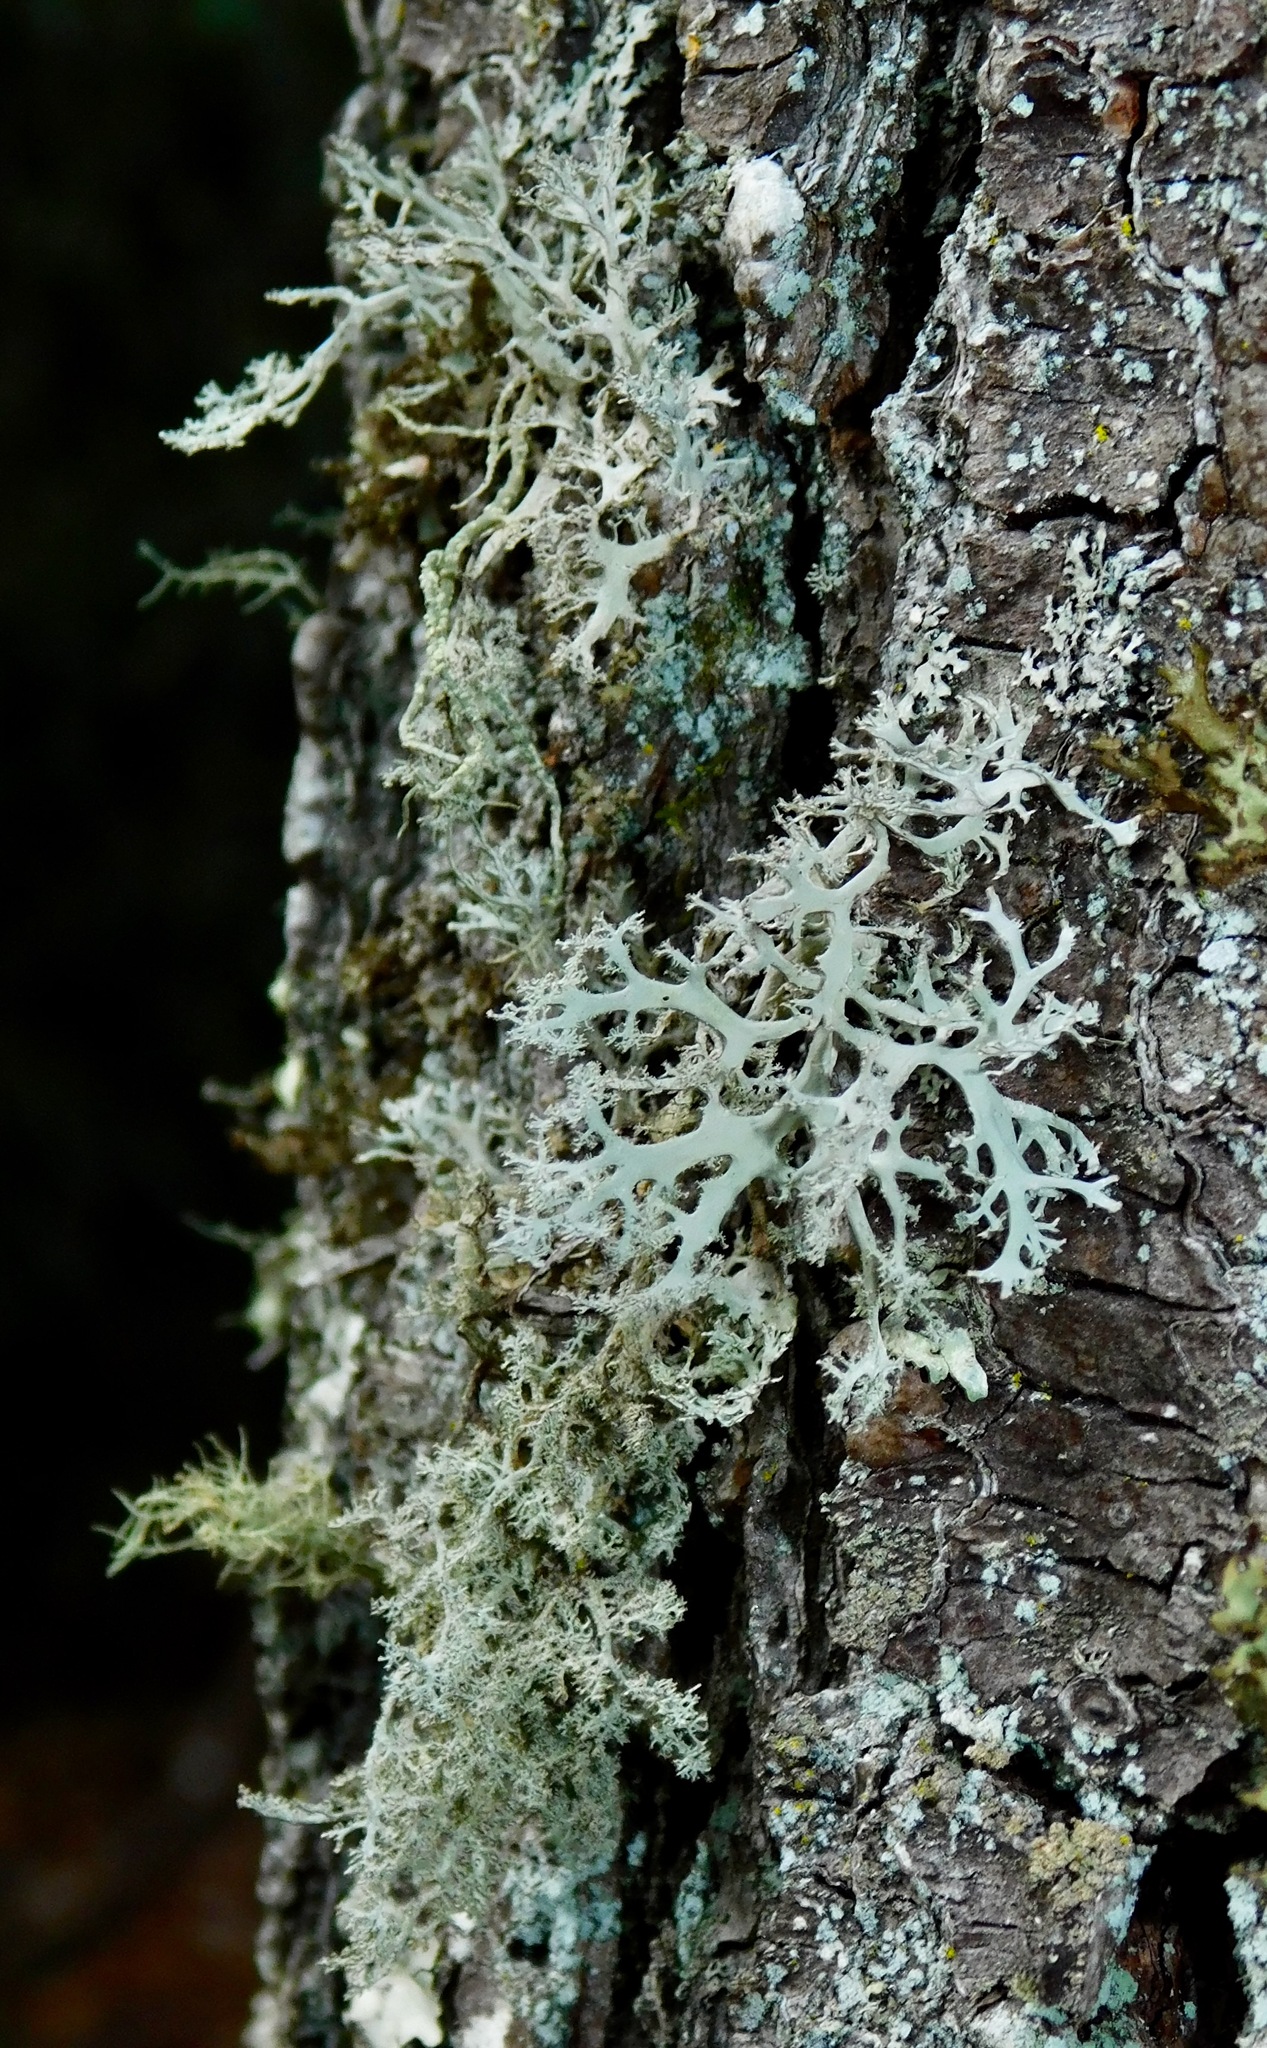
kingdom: Fungi
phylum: Ascomycota
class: Lecanoromycetes
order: Lecanorales
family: Parmeliaceae
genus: Evernia
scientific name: Evernia prunastri
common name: Oak moss
